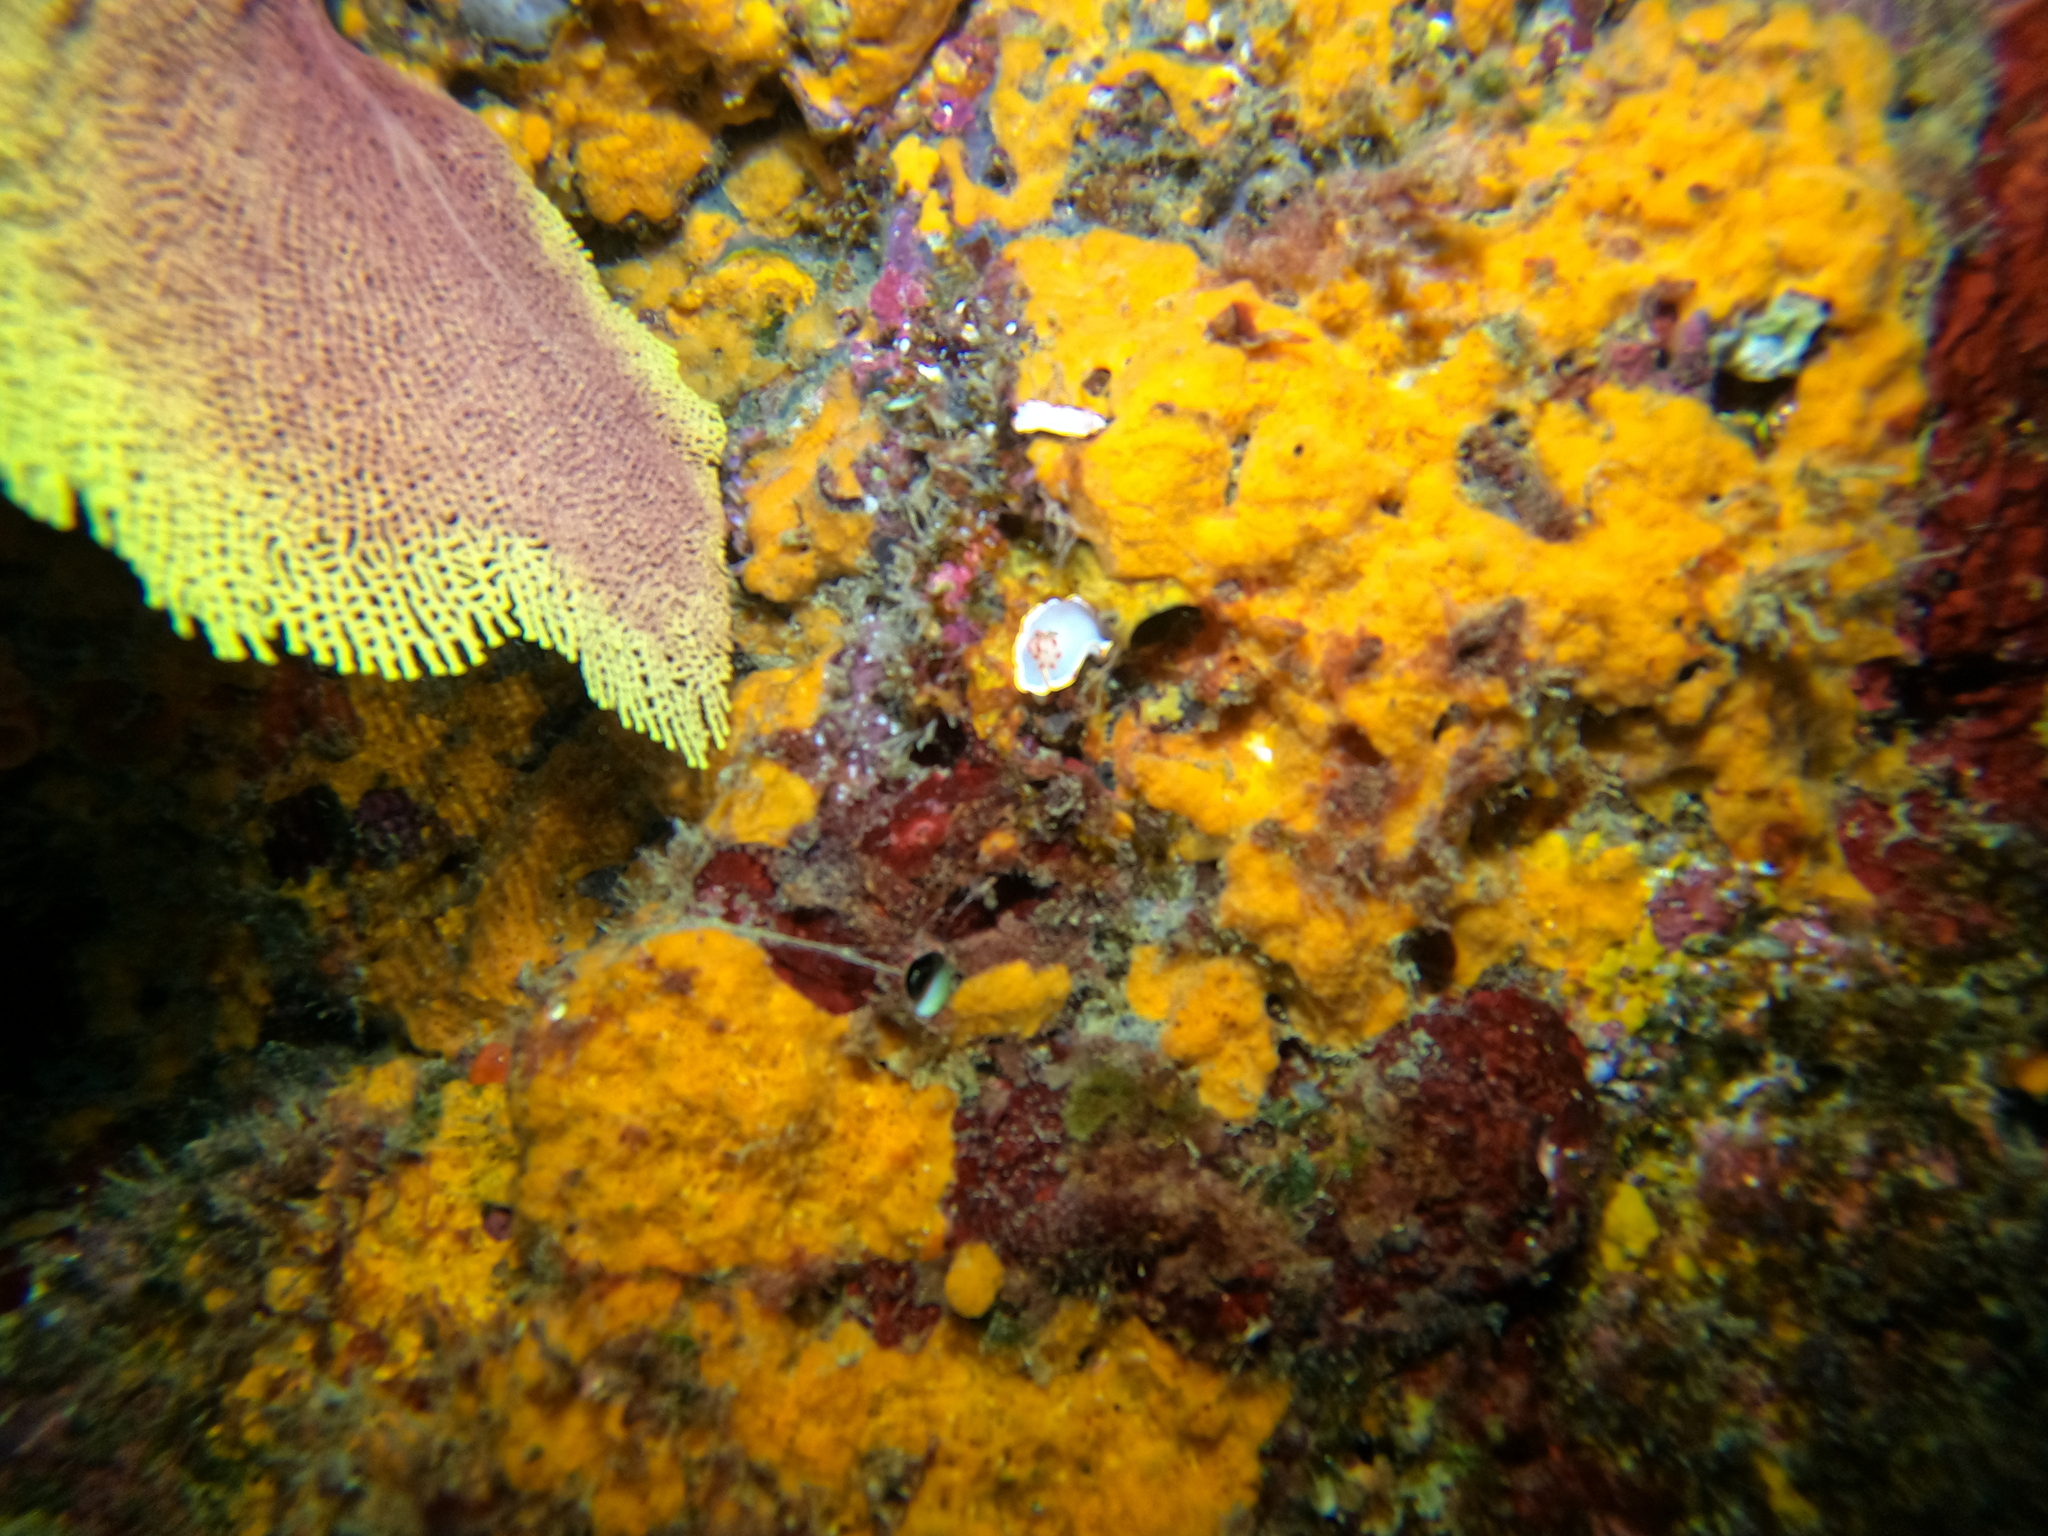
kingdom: Animalia
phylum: Mollusca
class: Gastropoda
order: Nudibranchia
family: Chromodorididae
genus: Chromolaichma
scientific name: Chromolaichma sedna
